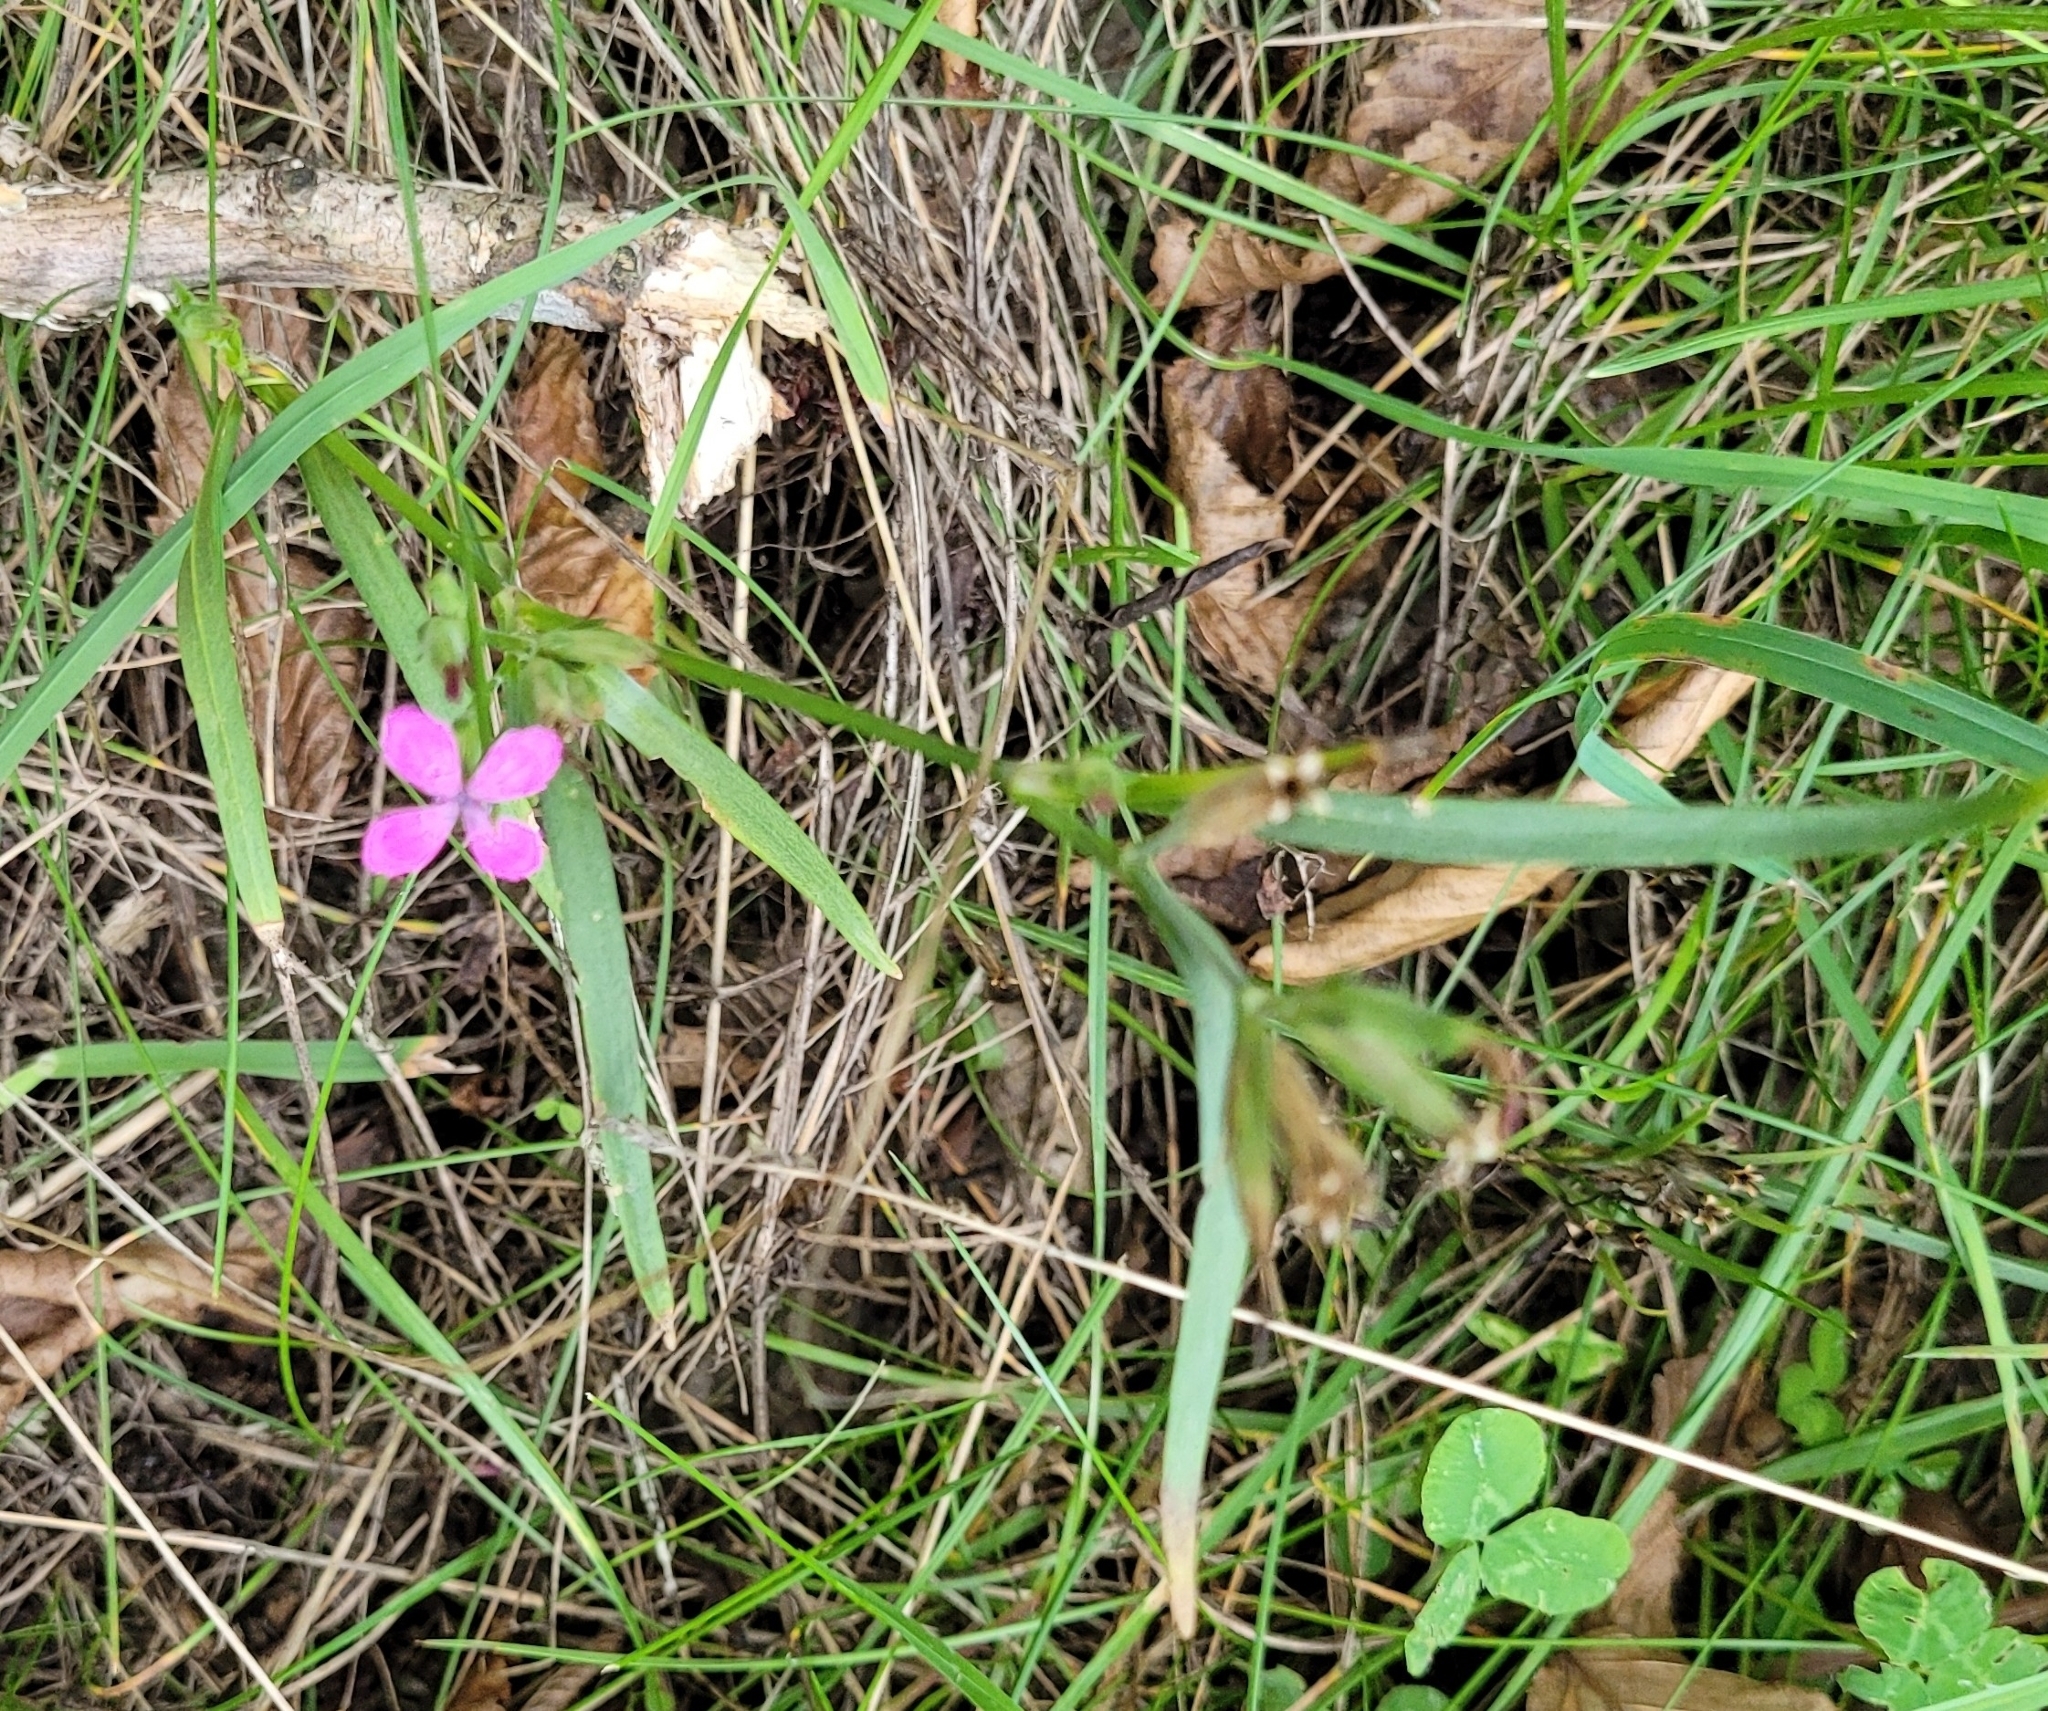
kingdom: Plantae
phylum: Tracheophyta
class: Magnoliopsida
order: Caryophyllales
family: Caryophyllaceae
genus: Dianthus
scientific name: Dianthus armeria
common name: Deptford pink
